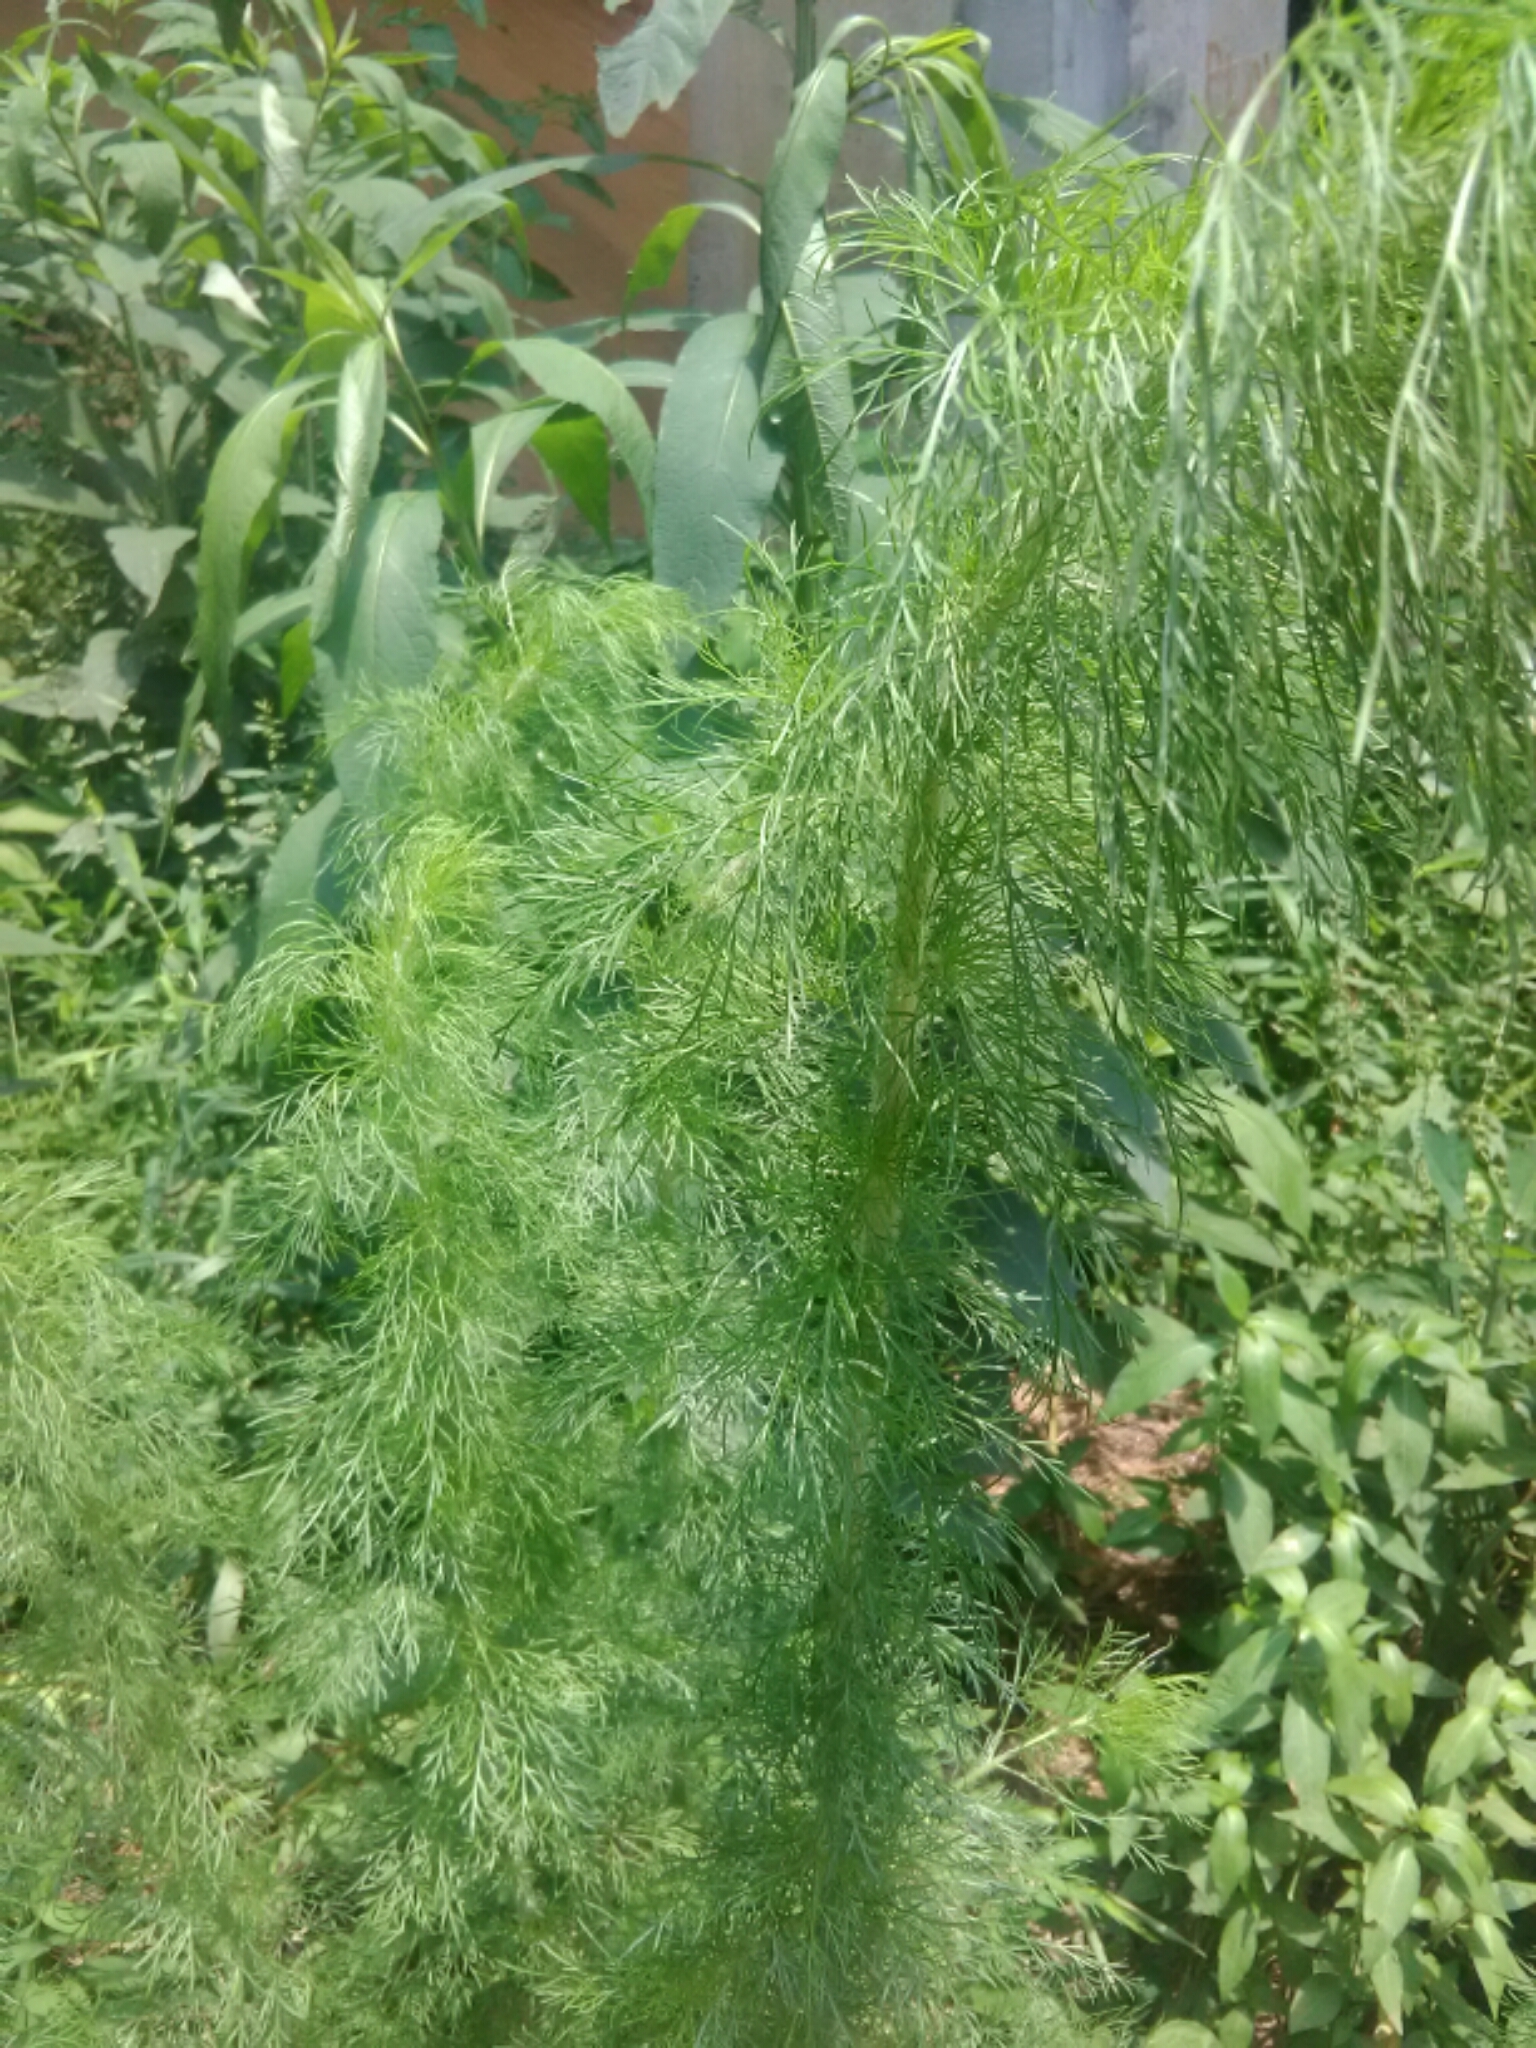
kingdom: Plantae
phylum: Tracheophyta
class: Magnoliopsida
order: Asterales
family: Asteraceae
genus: Eupatorium
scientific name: Eupatorium capillifolium
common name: Dog-fennel
